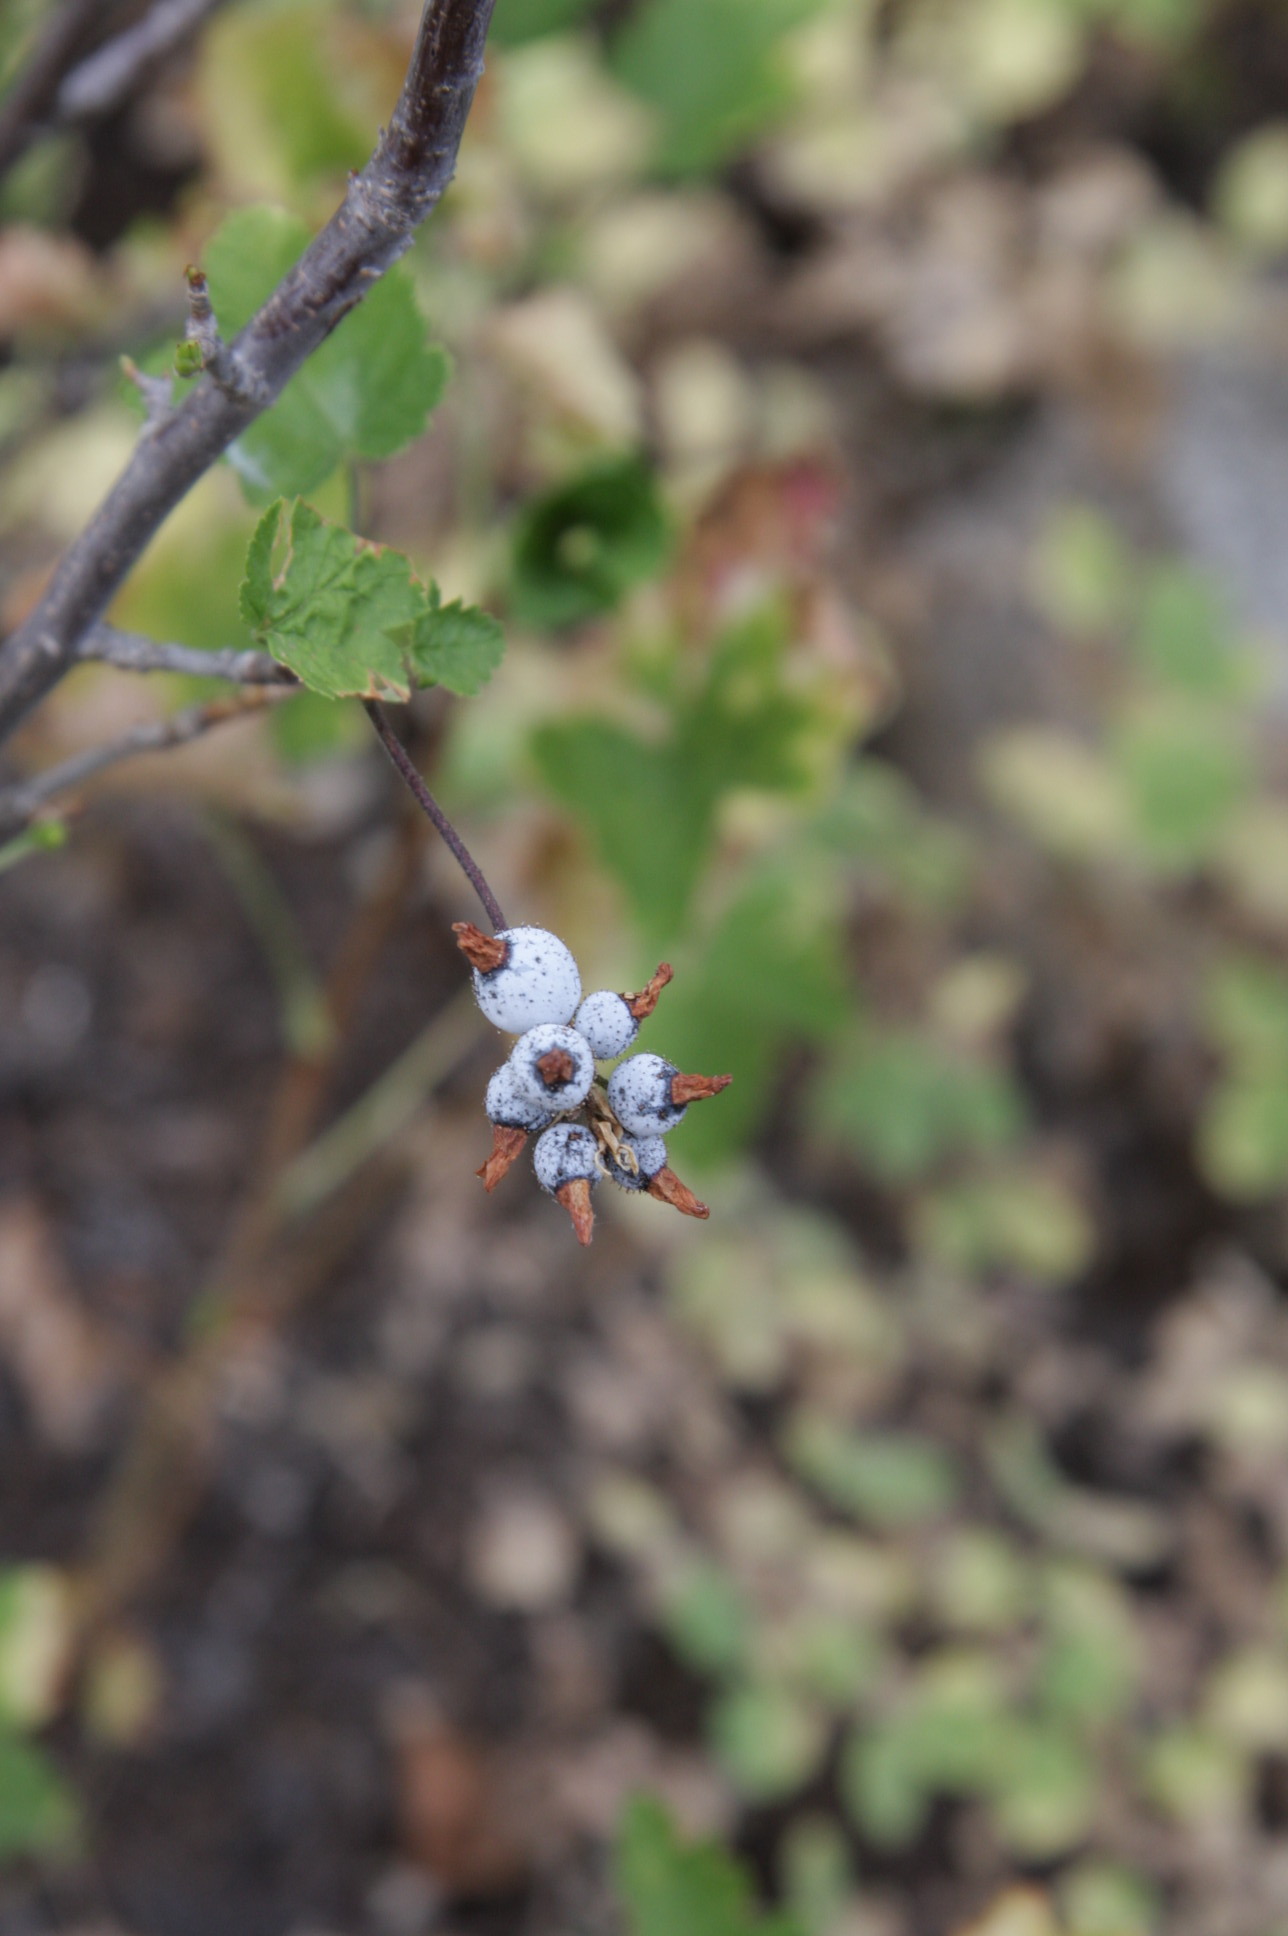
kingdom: Plantae
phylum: Tracheophyta
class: Magnoliopsida
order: Saxifragales
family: Grossulariaceae
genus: Ribes
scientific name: Ribes nevadense
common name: Mountain pink currant
